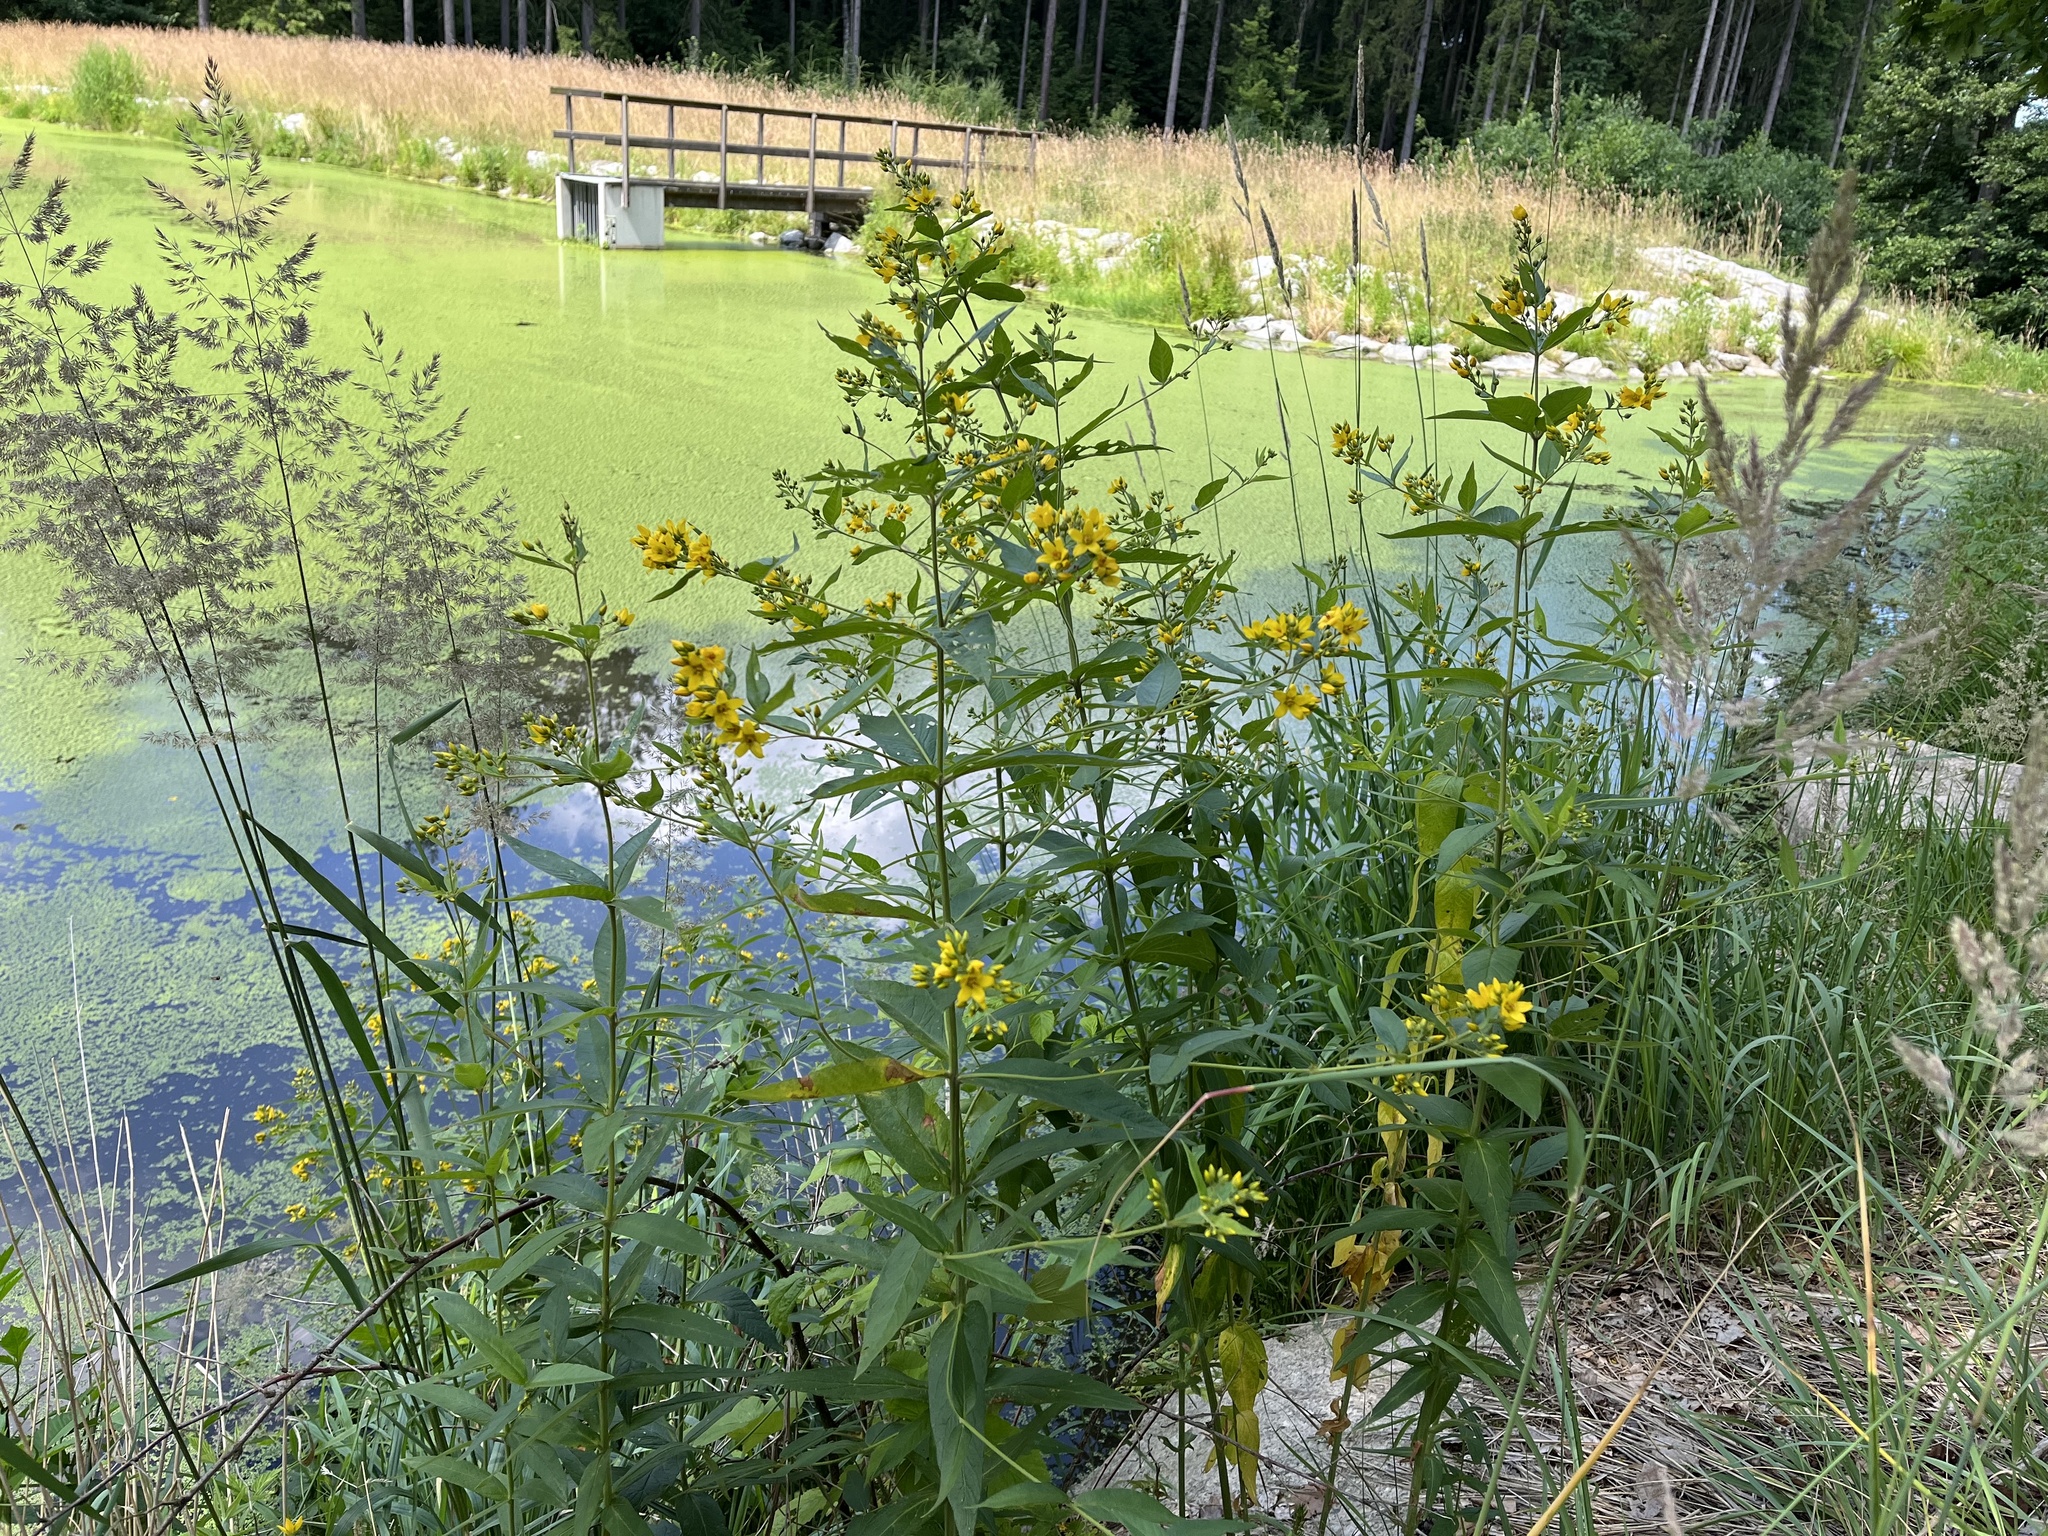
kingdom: Plantae
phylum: Tracheophyta
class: Magnoliopsida
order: Ericales
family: Primulaceae
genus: Lysimachia
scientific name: Lysimachia vulgaris
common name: Yellow loosestrife
